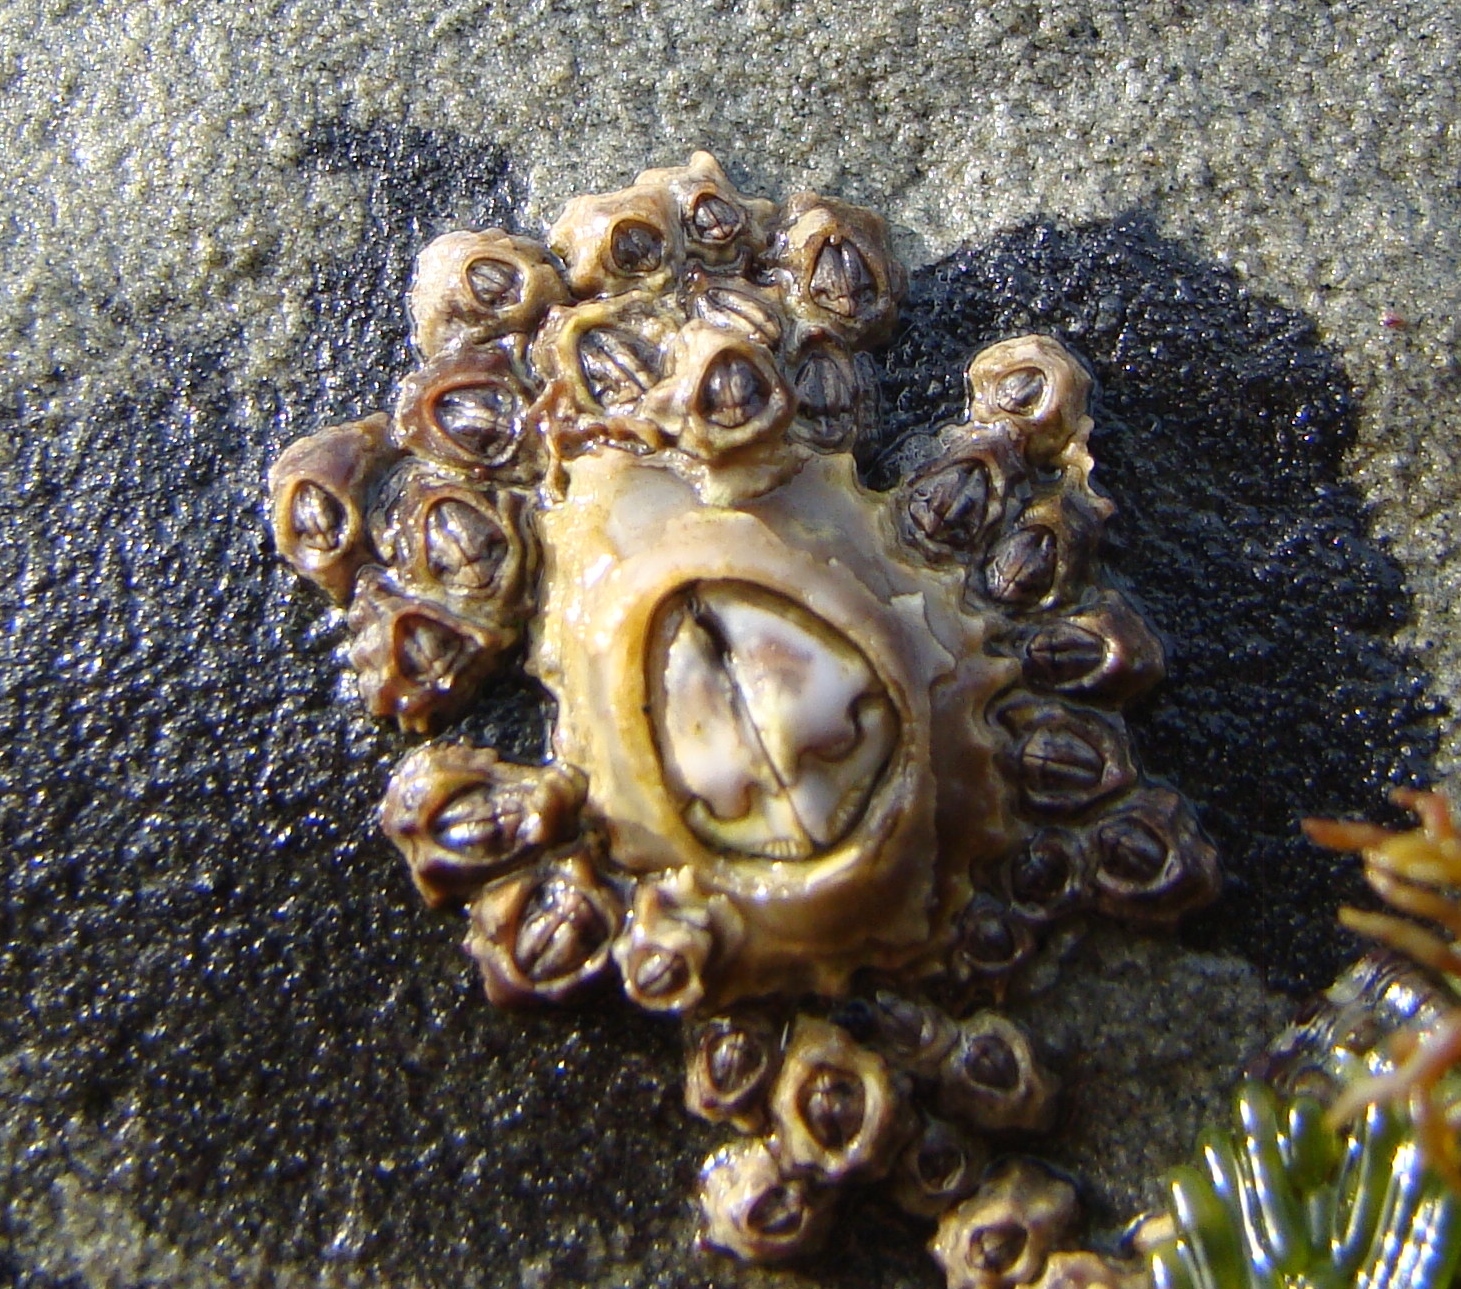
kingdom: Animalia
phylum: Arthropoda
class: Maxillopoda
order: Sessilia
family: Chthamalidae
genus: Chamaesipho
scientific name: Chamaesipho brunnea
